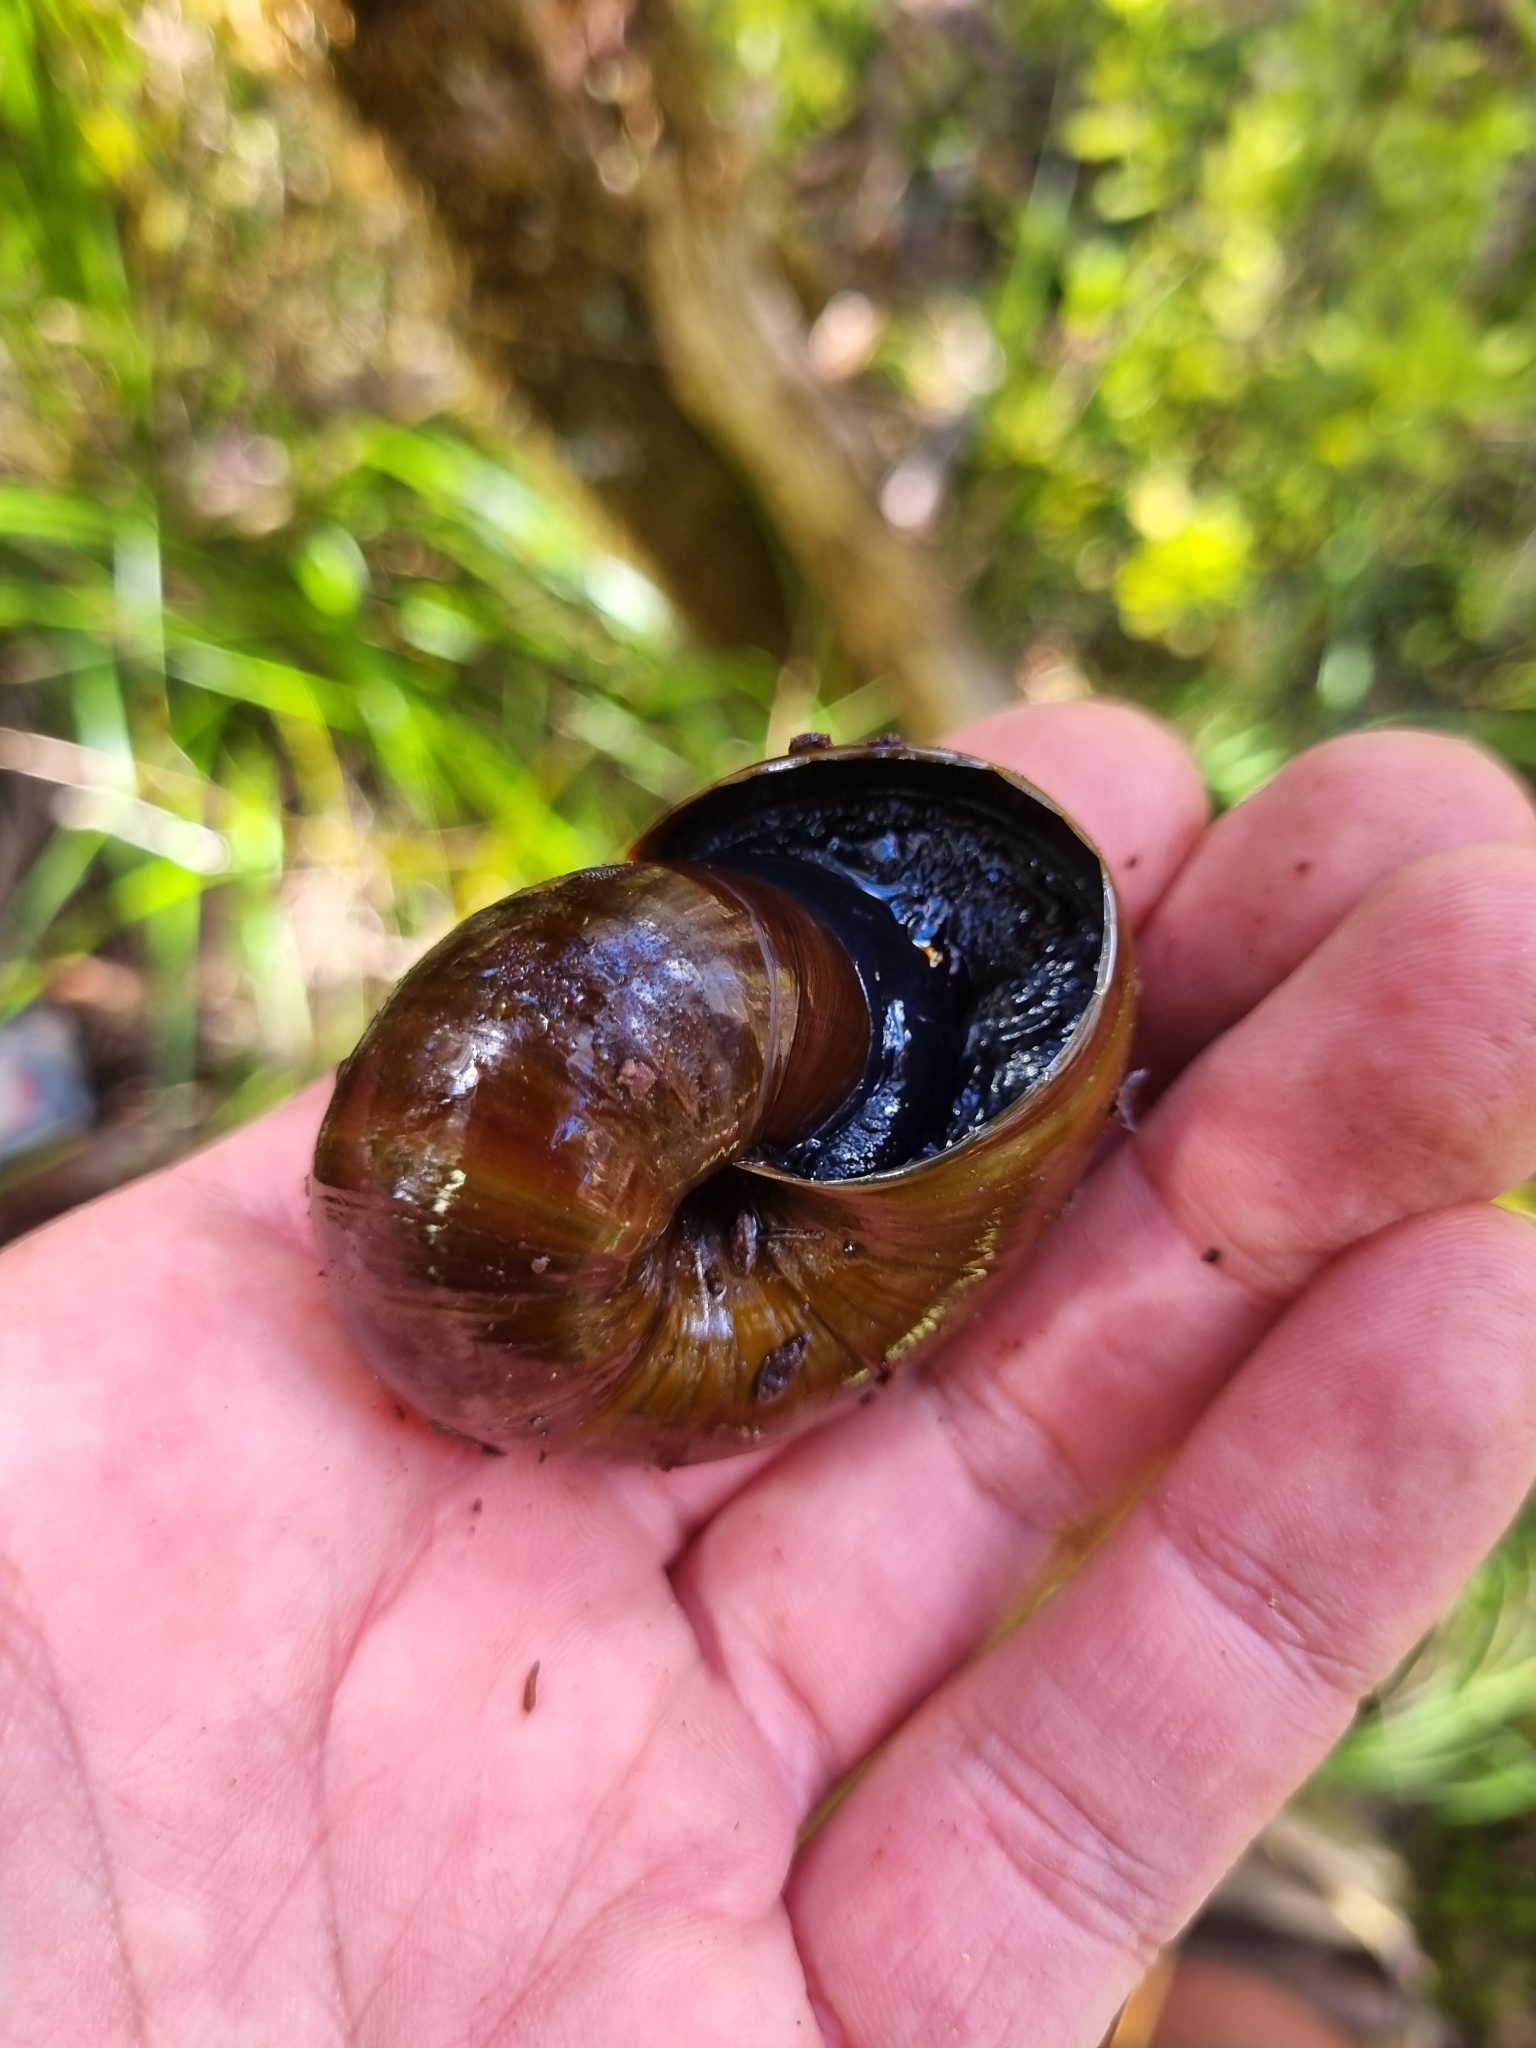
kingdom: Animalia
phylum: Mollusca
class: Gastropoda
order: Stylommatophora
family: Rhytididae
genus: Powelliphanta
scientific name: Powelliphanta superba
